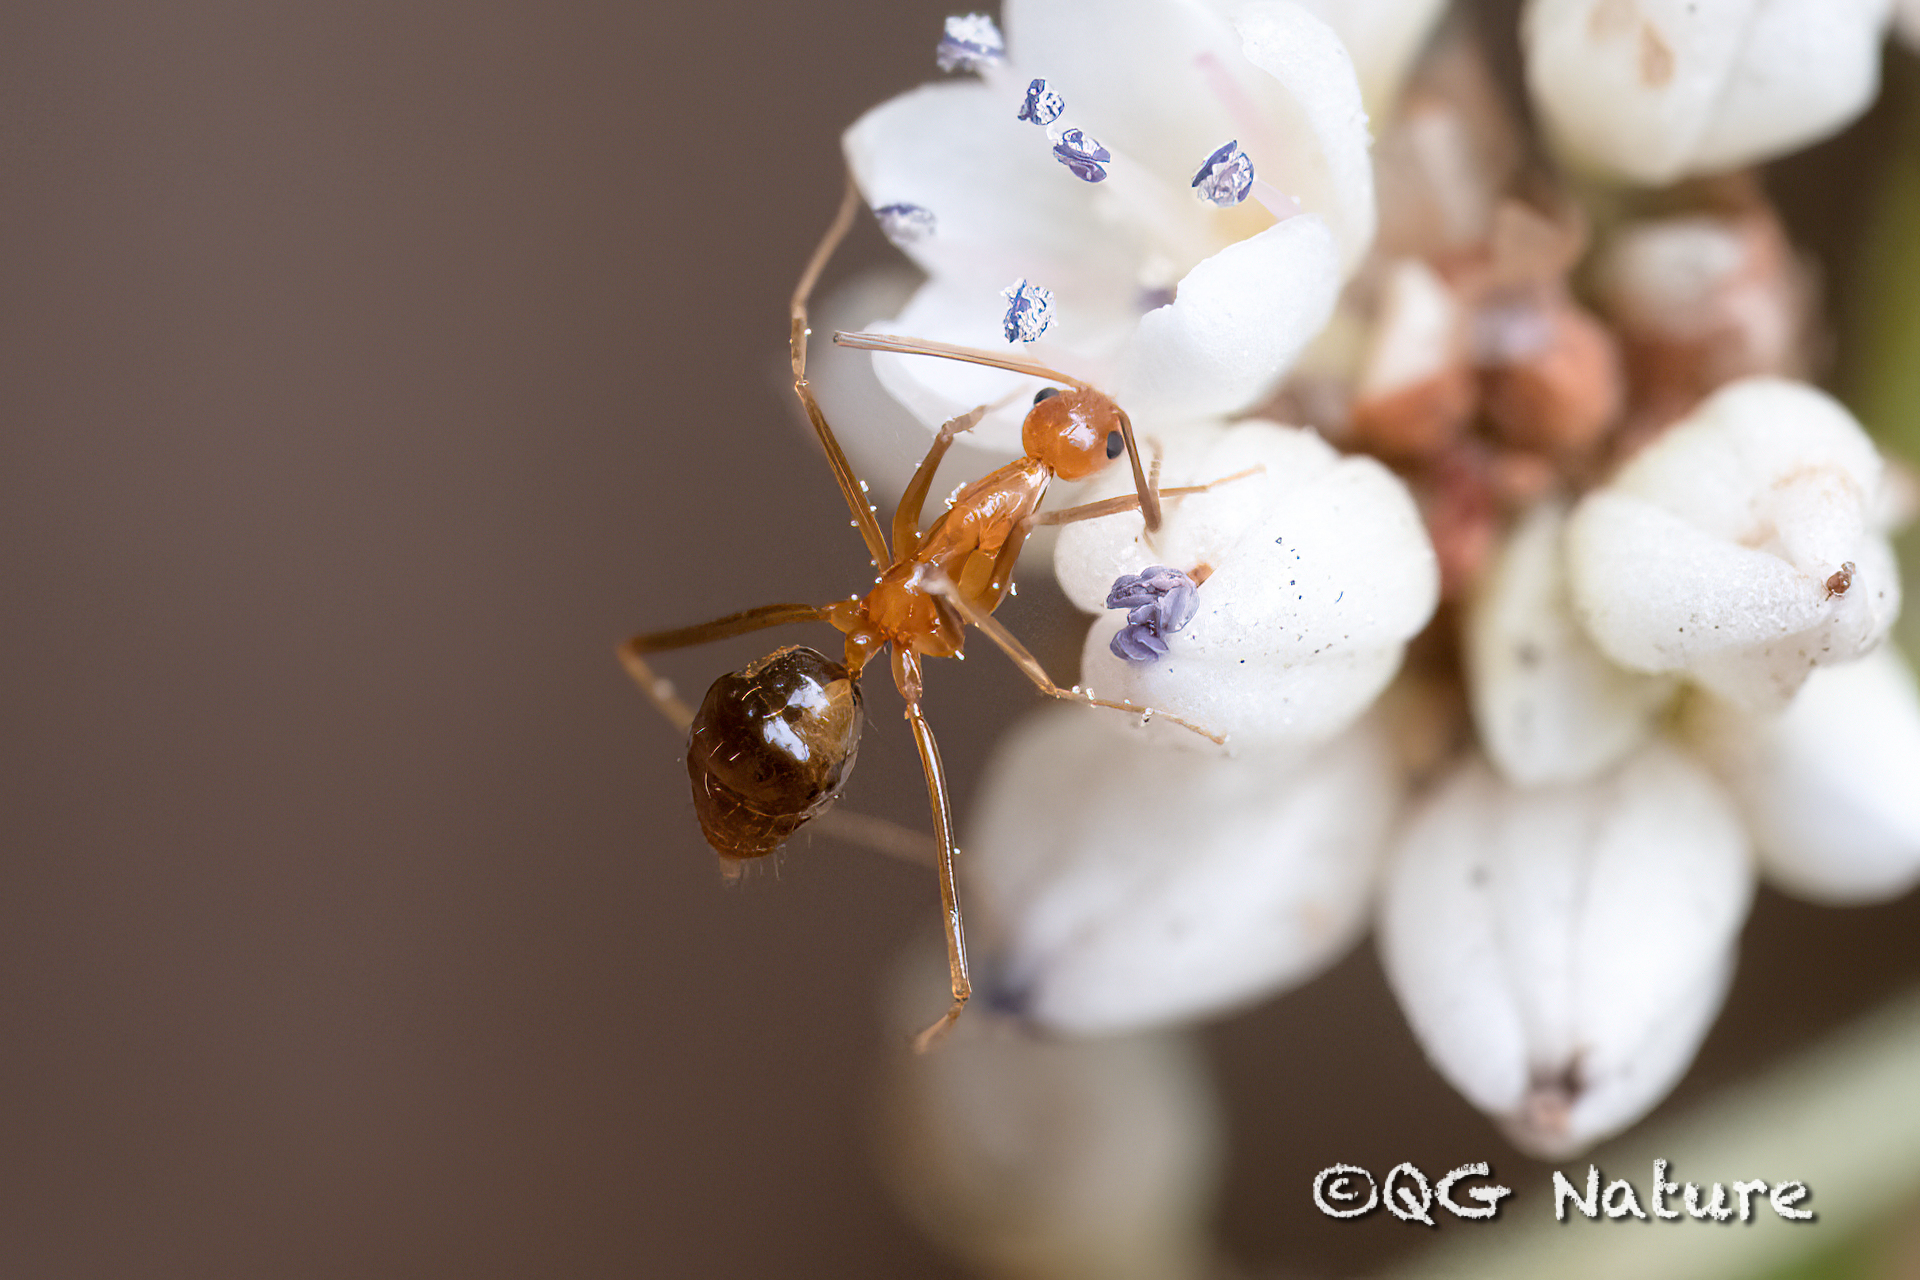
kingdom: Animalia
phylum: Arthropoda
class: Insecta
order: Hymenoptera
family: Formicidae
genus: Anoplolepis
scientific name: Anoplolepis gracilipes
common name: Ant
